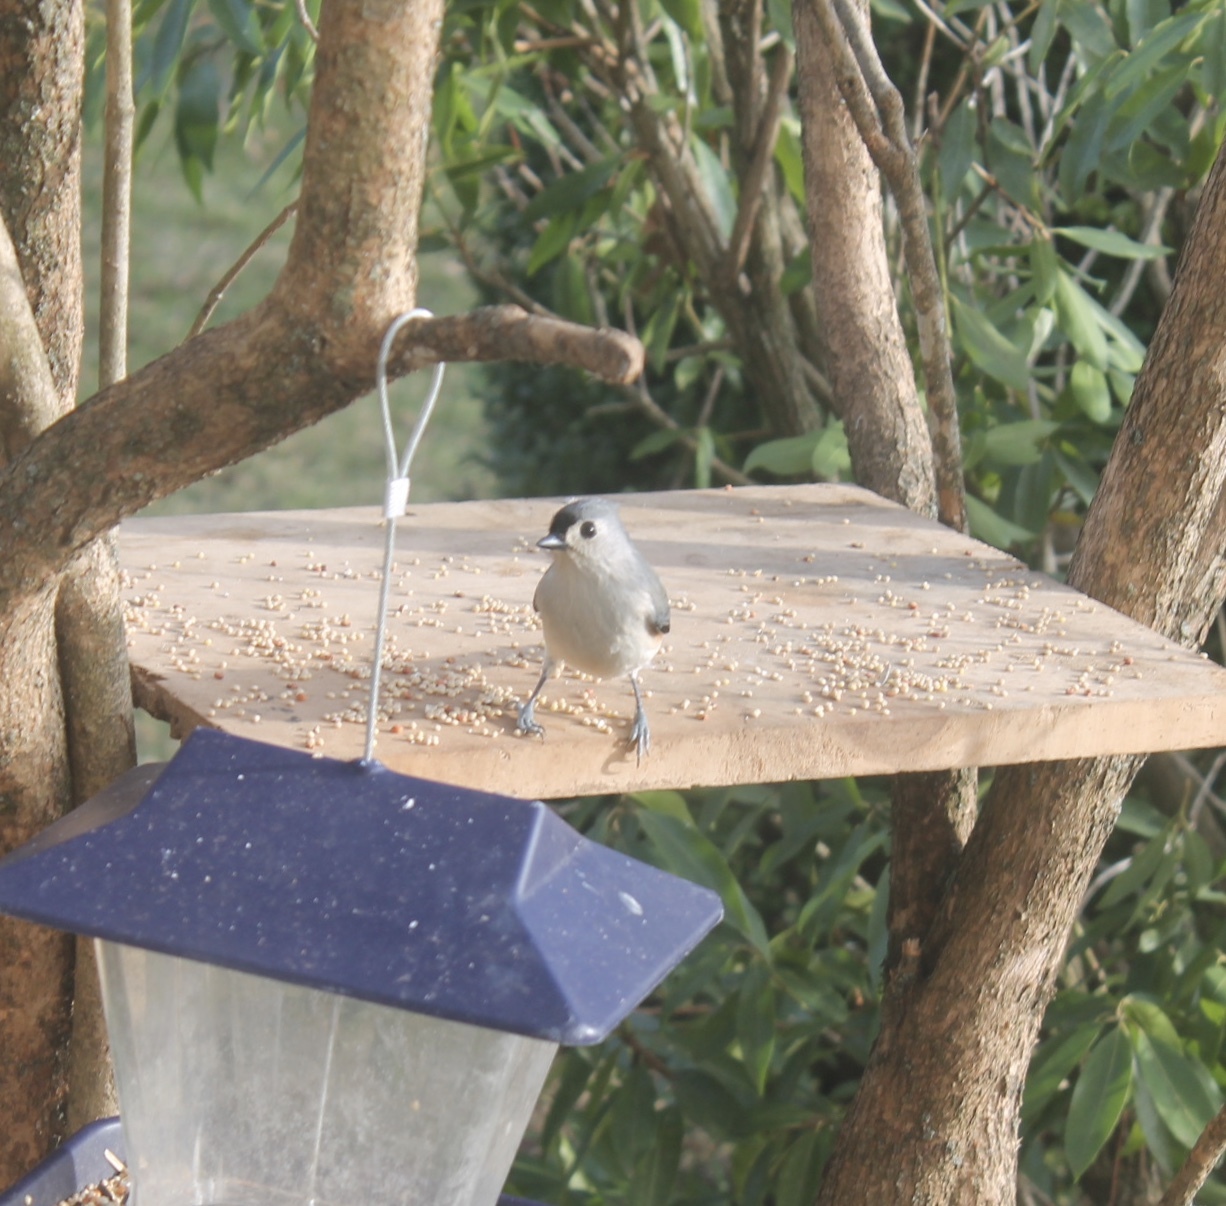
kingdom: Animalia
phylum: Chordata
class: Aves
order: Passeriformes
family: Paridae
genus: Baeolophus
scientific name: Baeolophus bicolor
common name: Tufted titmouse
